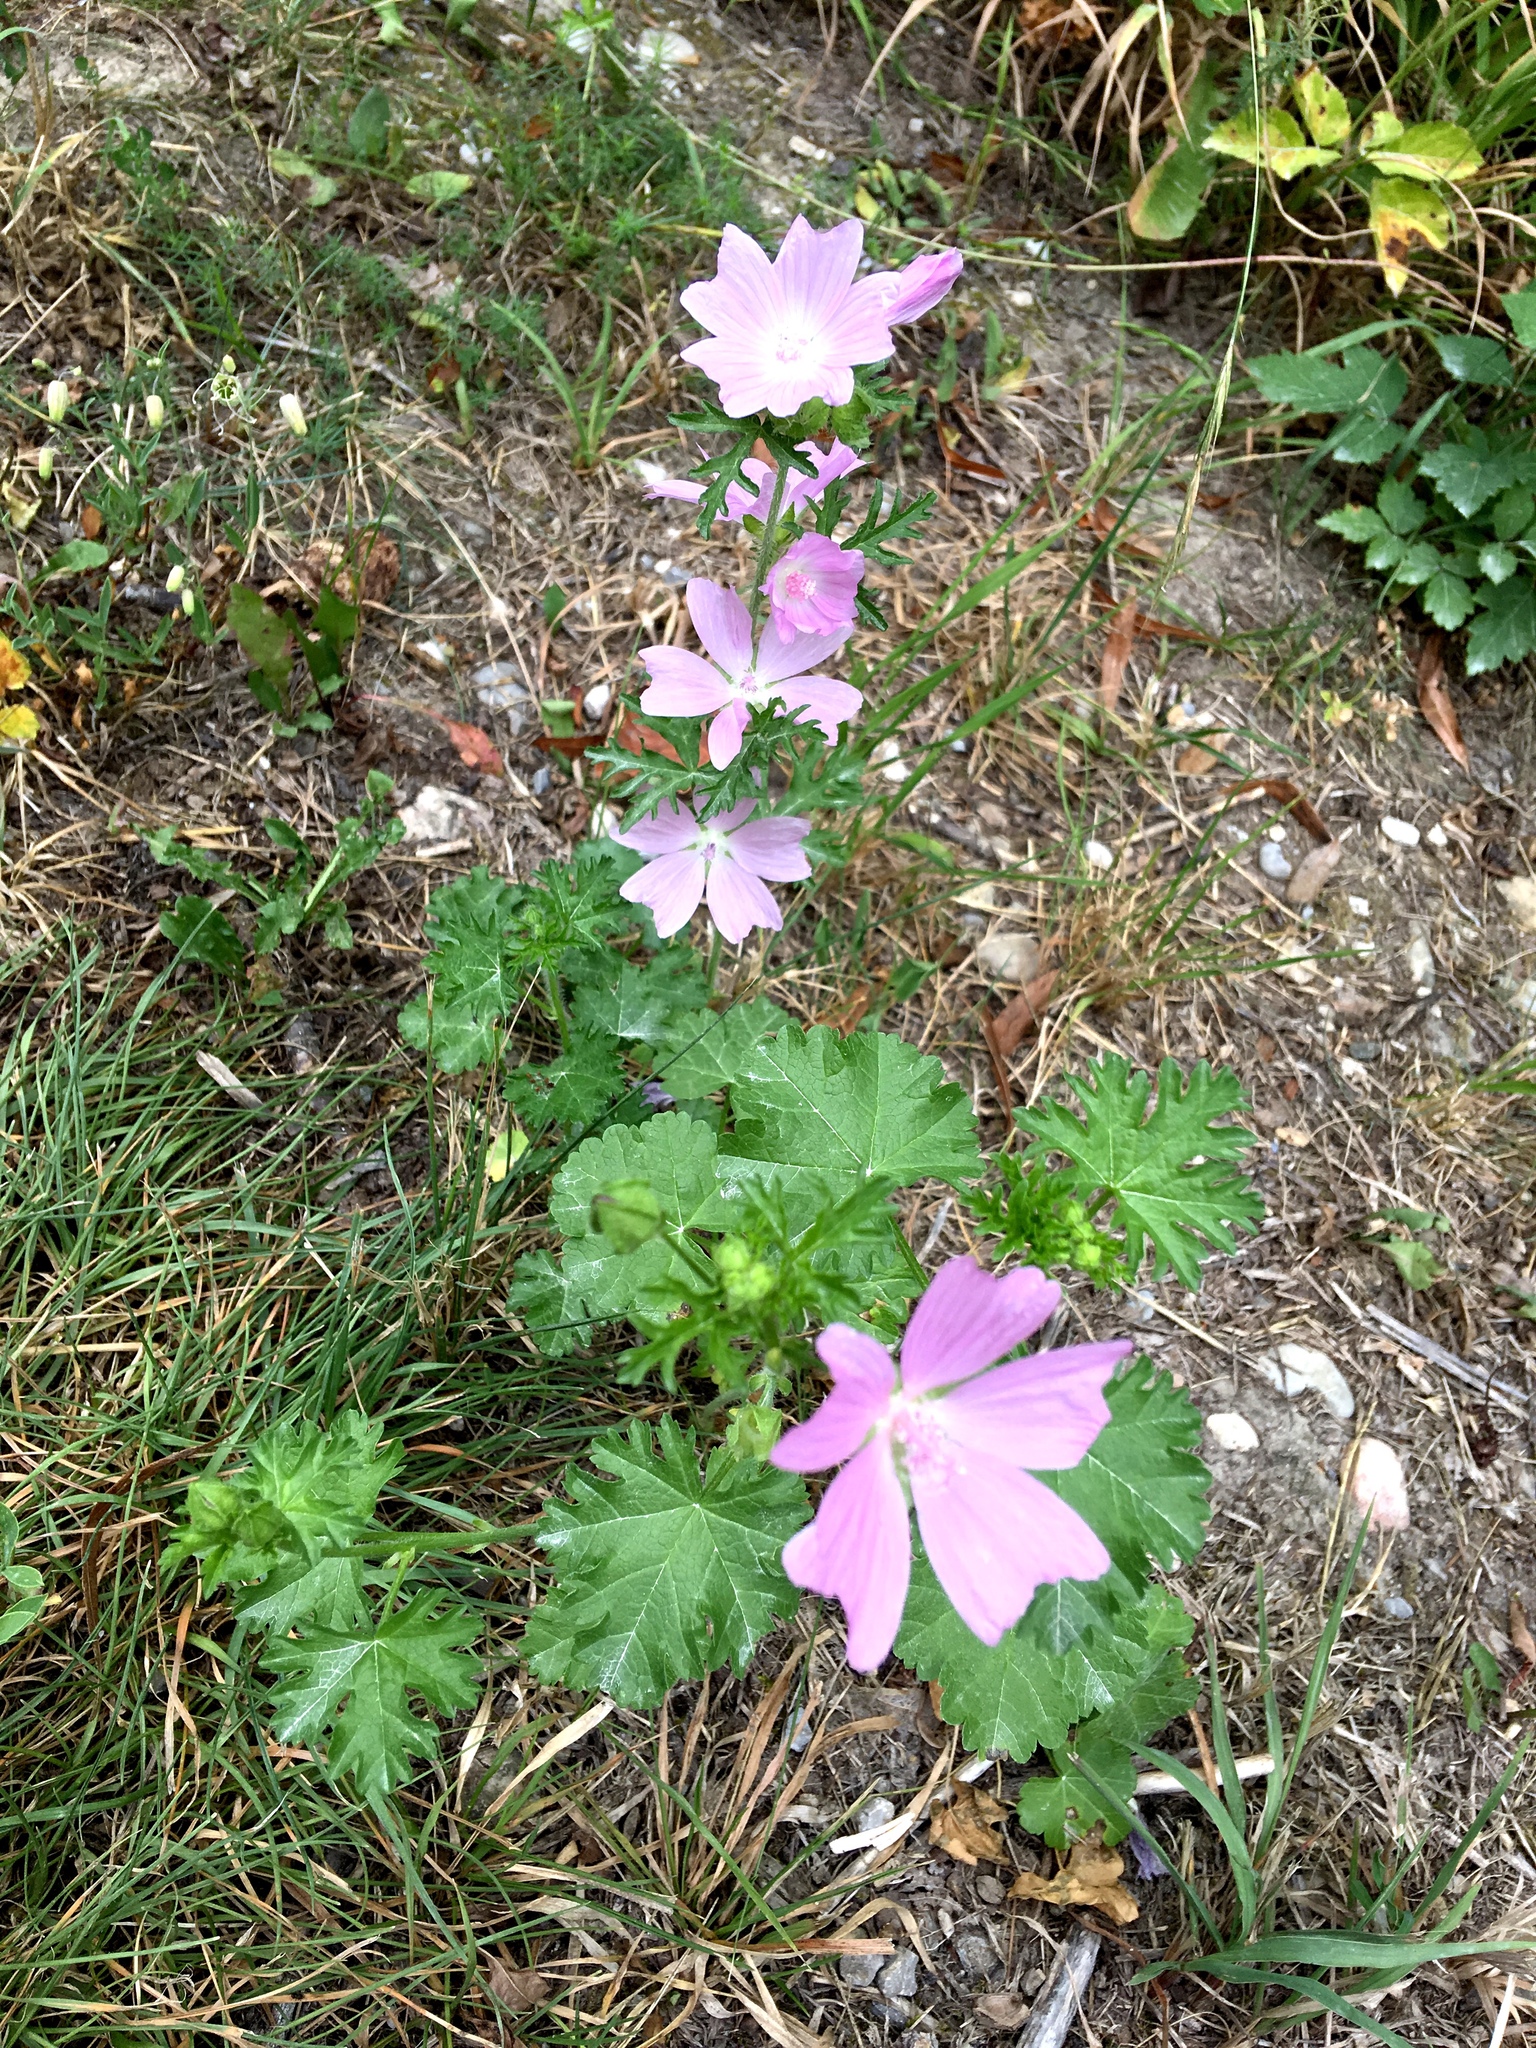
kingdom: Plantae
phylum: Tracheophyta
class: Magnoliopsida
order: Malvales
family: Malvaceae
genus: Malva
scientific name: Malva moschata
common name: Musk mallow
